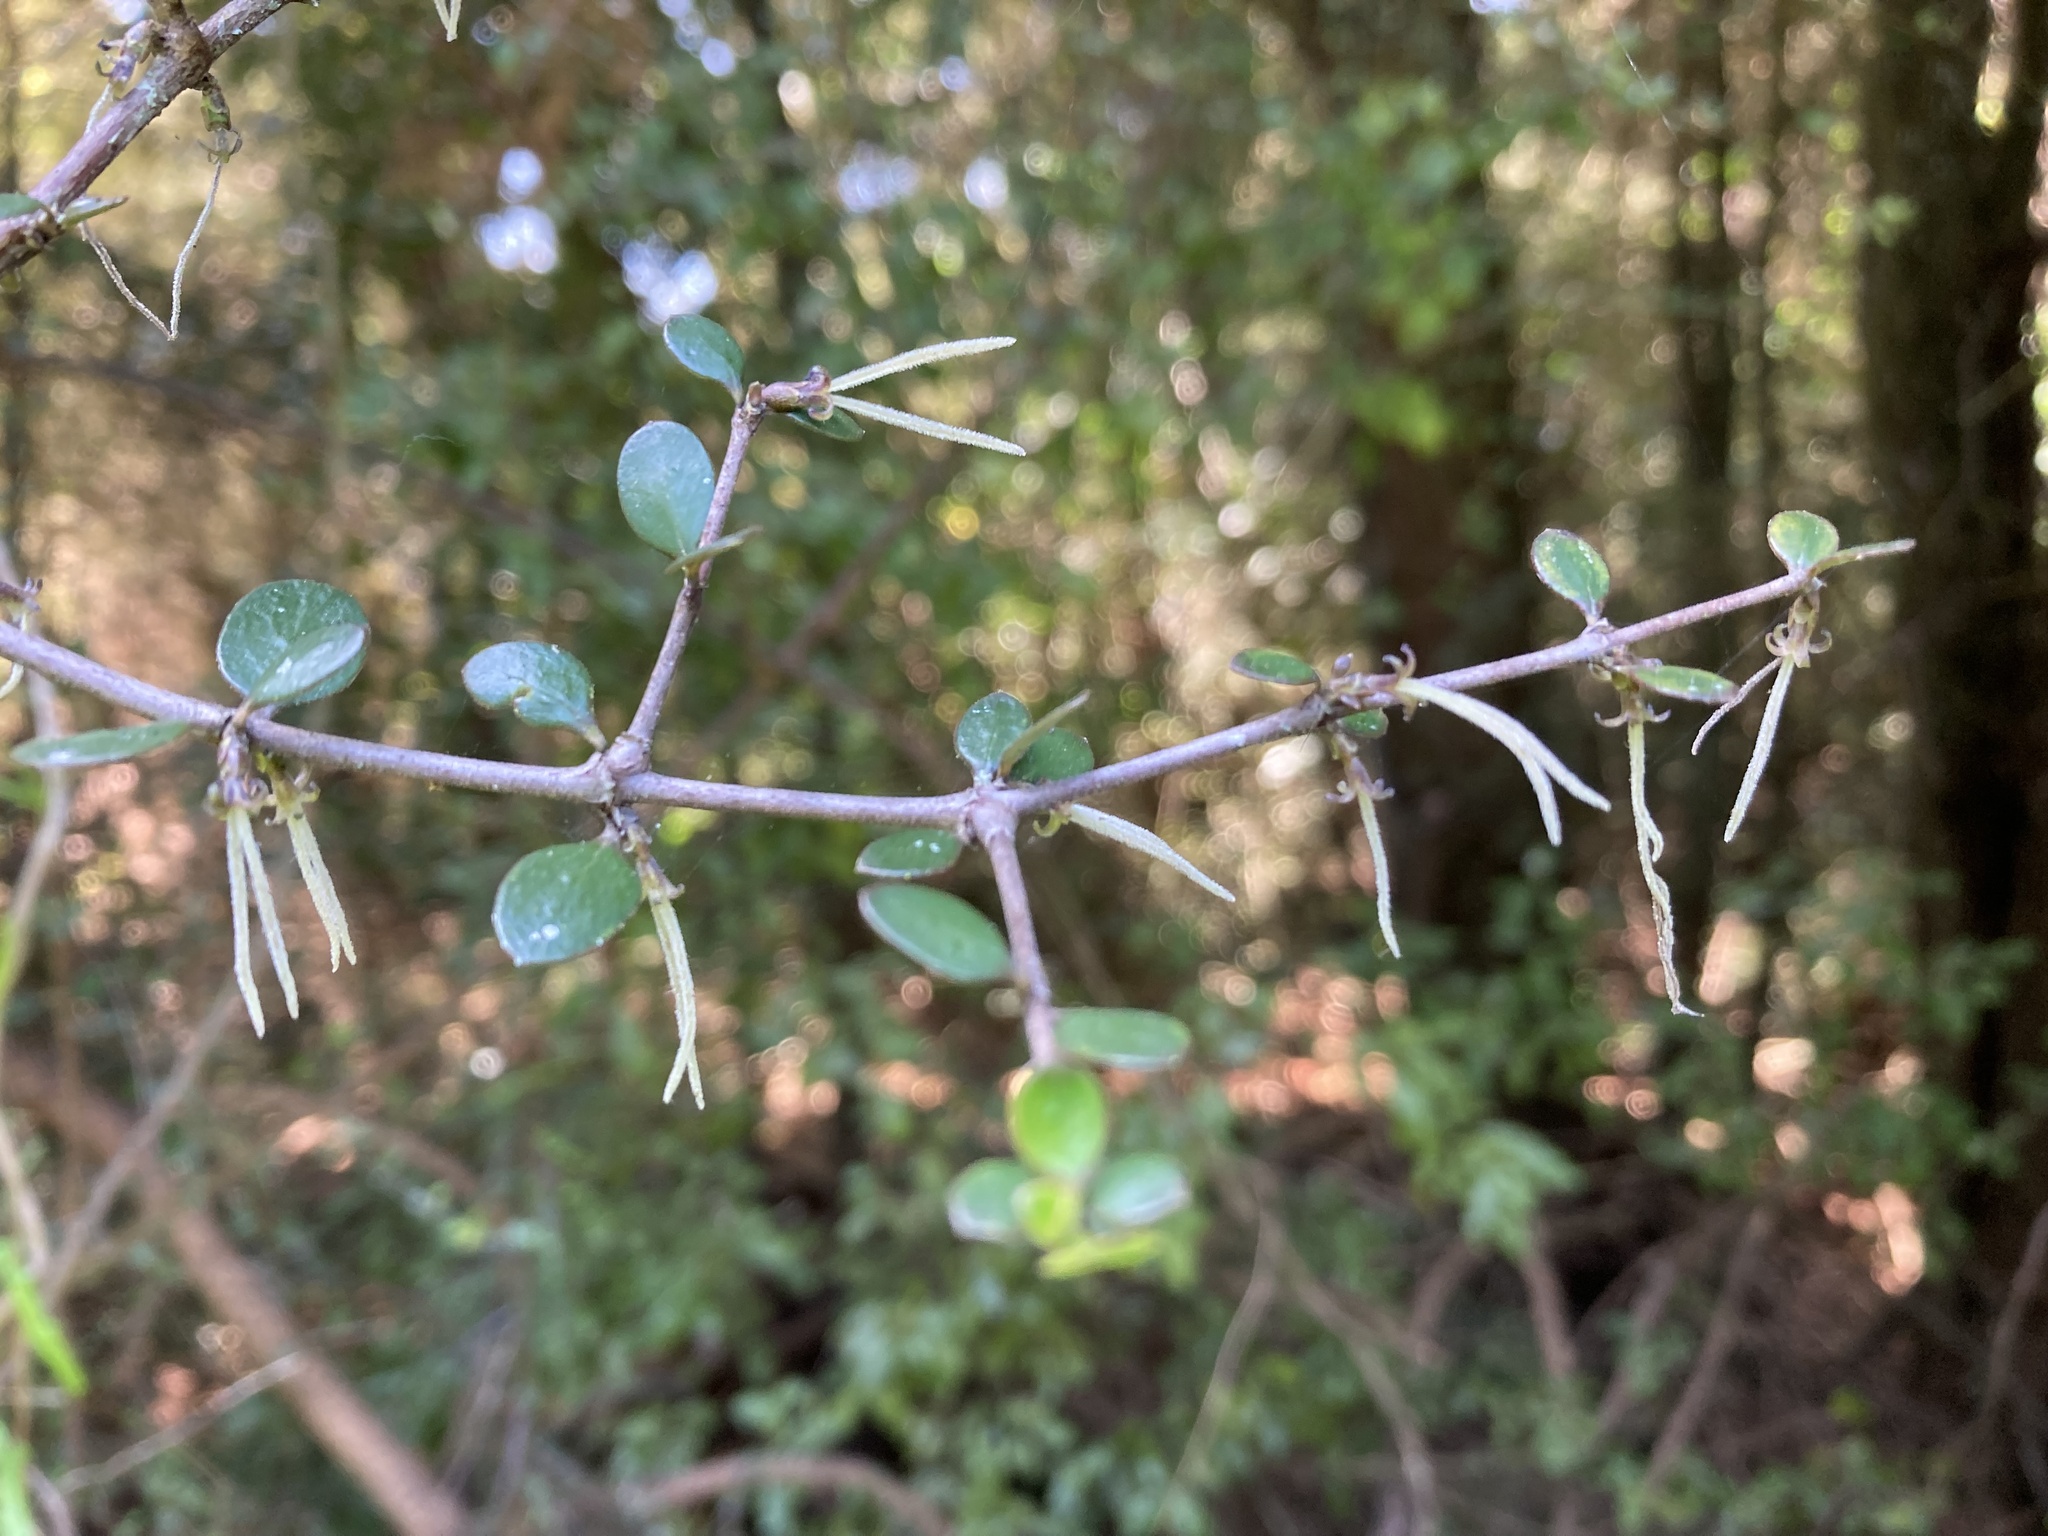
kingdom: Plantae
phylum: Tracheophyta
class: Magnoliopsida
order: Gentianales
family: Rubiaceae
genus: Coprosma
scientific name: Coprosma crassifolia
